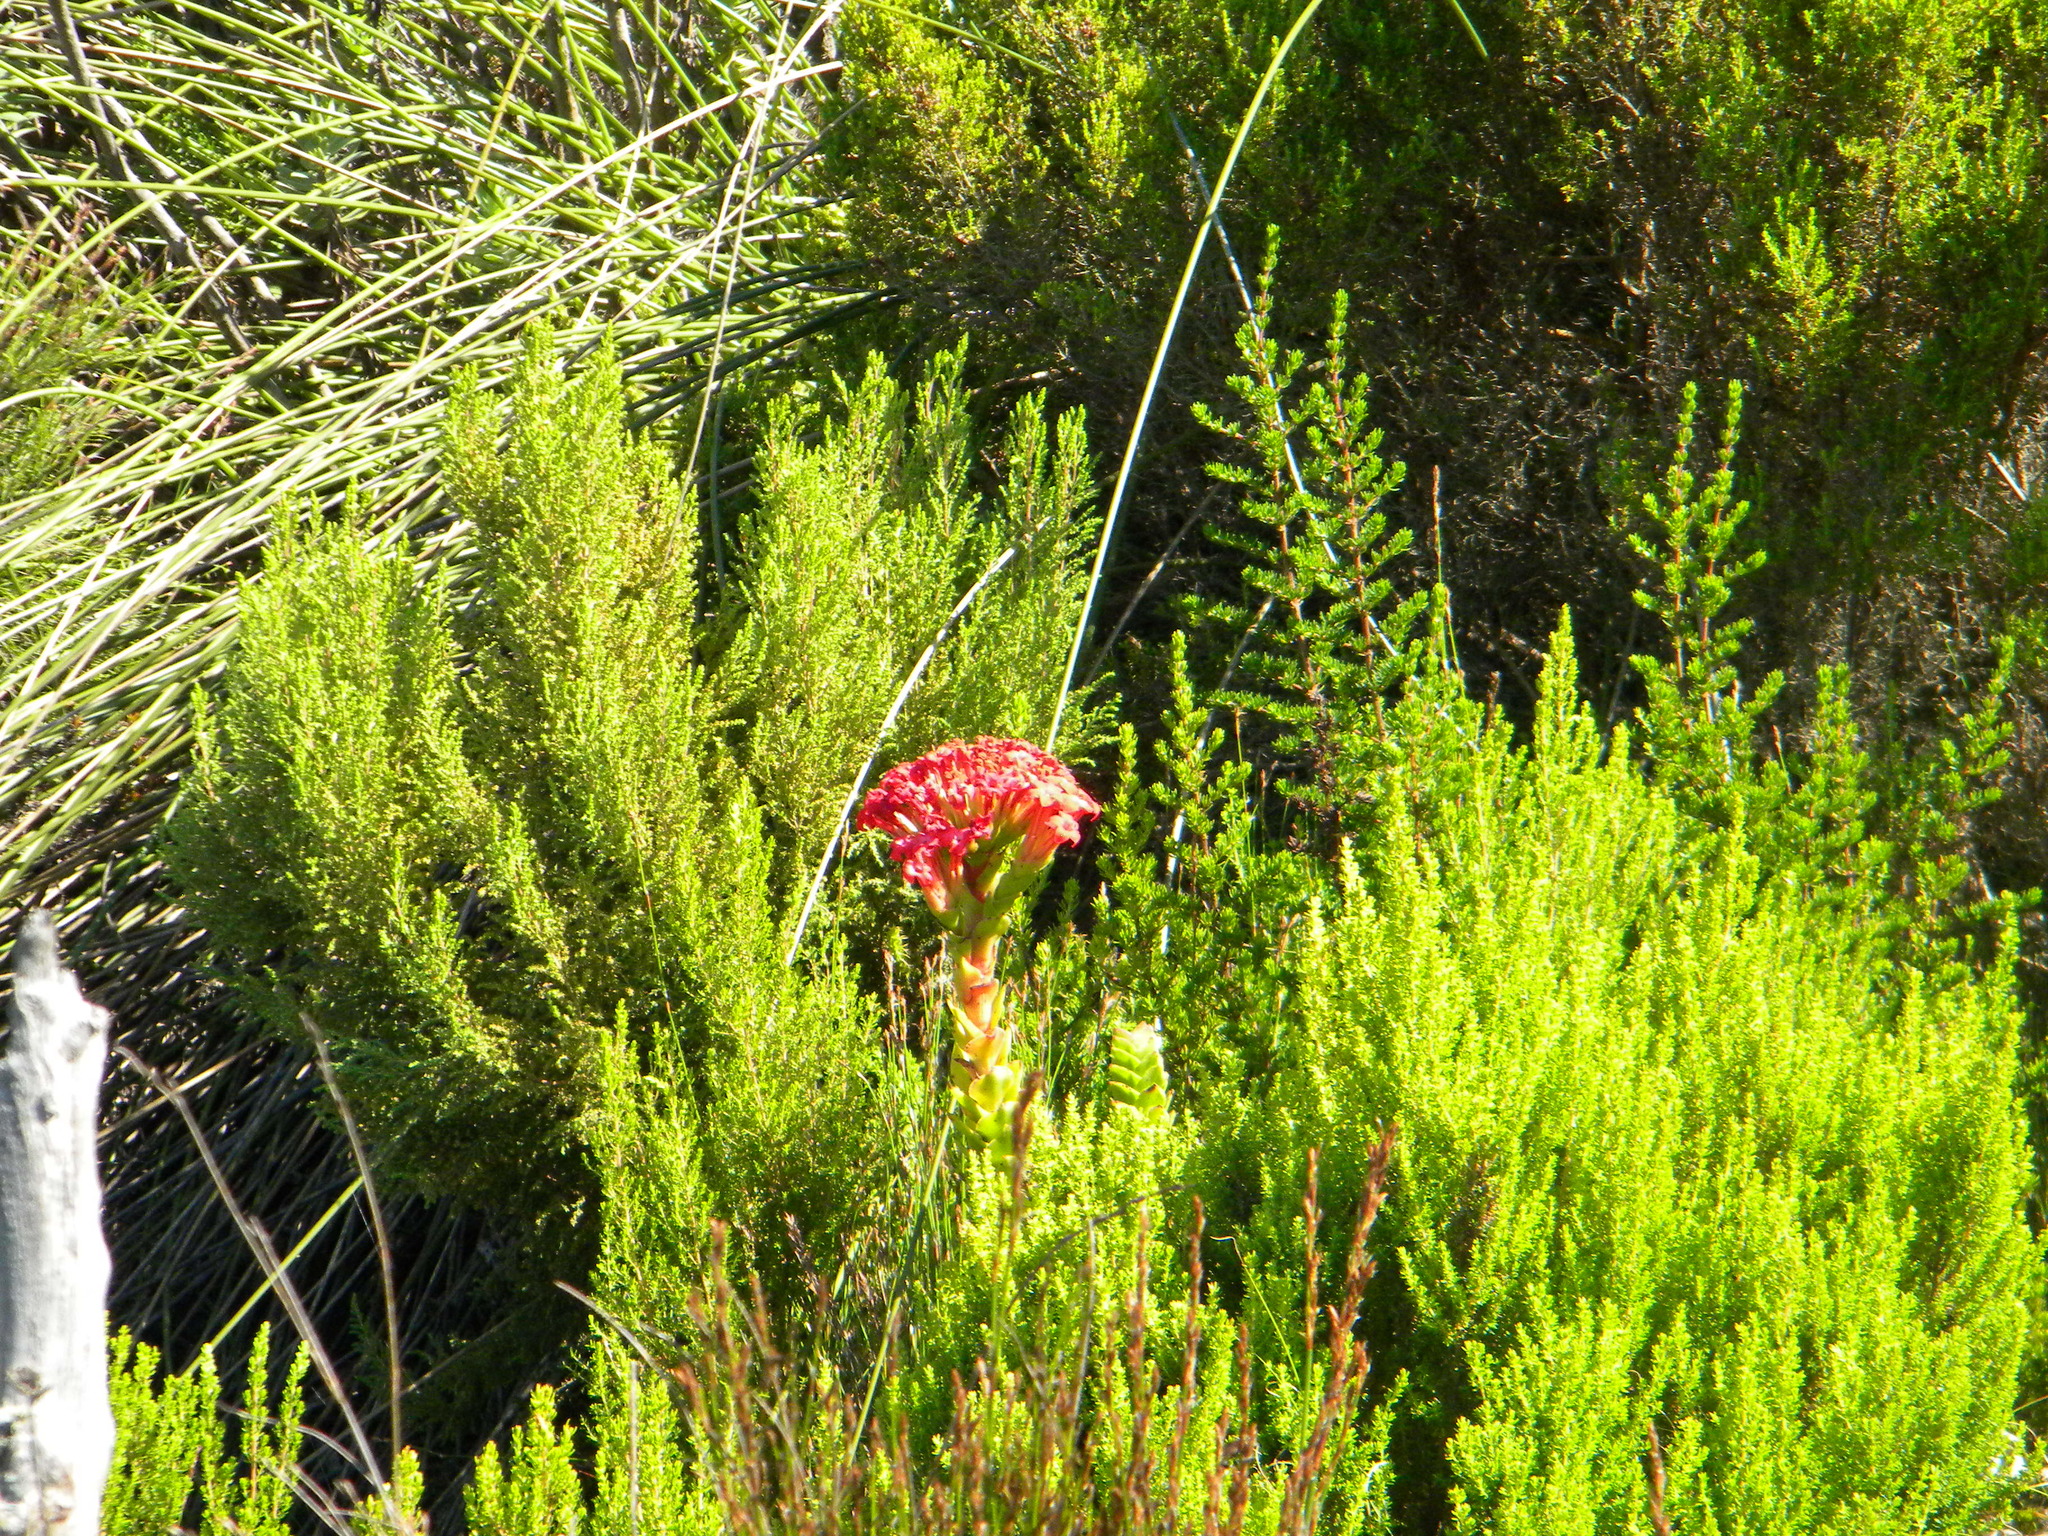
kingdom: Plantae
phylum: Tracheophyta
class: Magnoliopsida
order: Saxifragales
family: Crassulaceae
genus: Crassula
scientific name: Crassula coccinea
